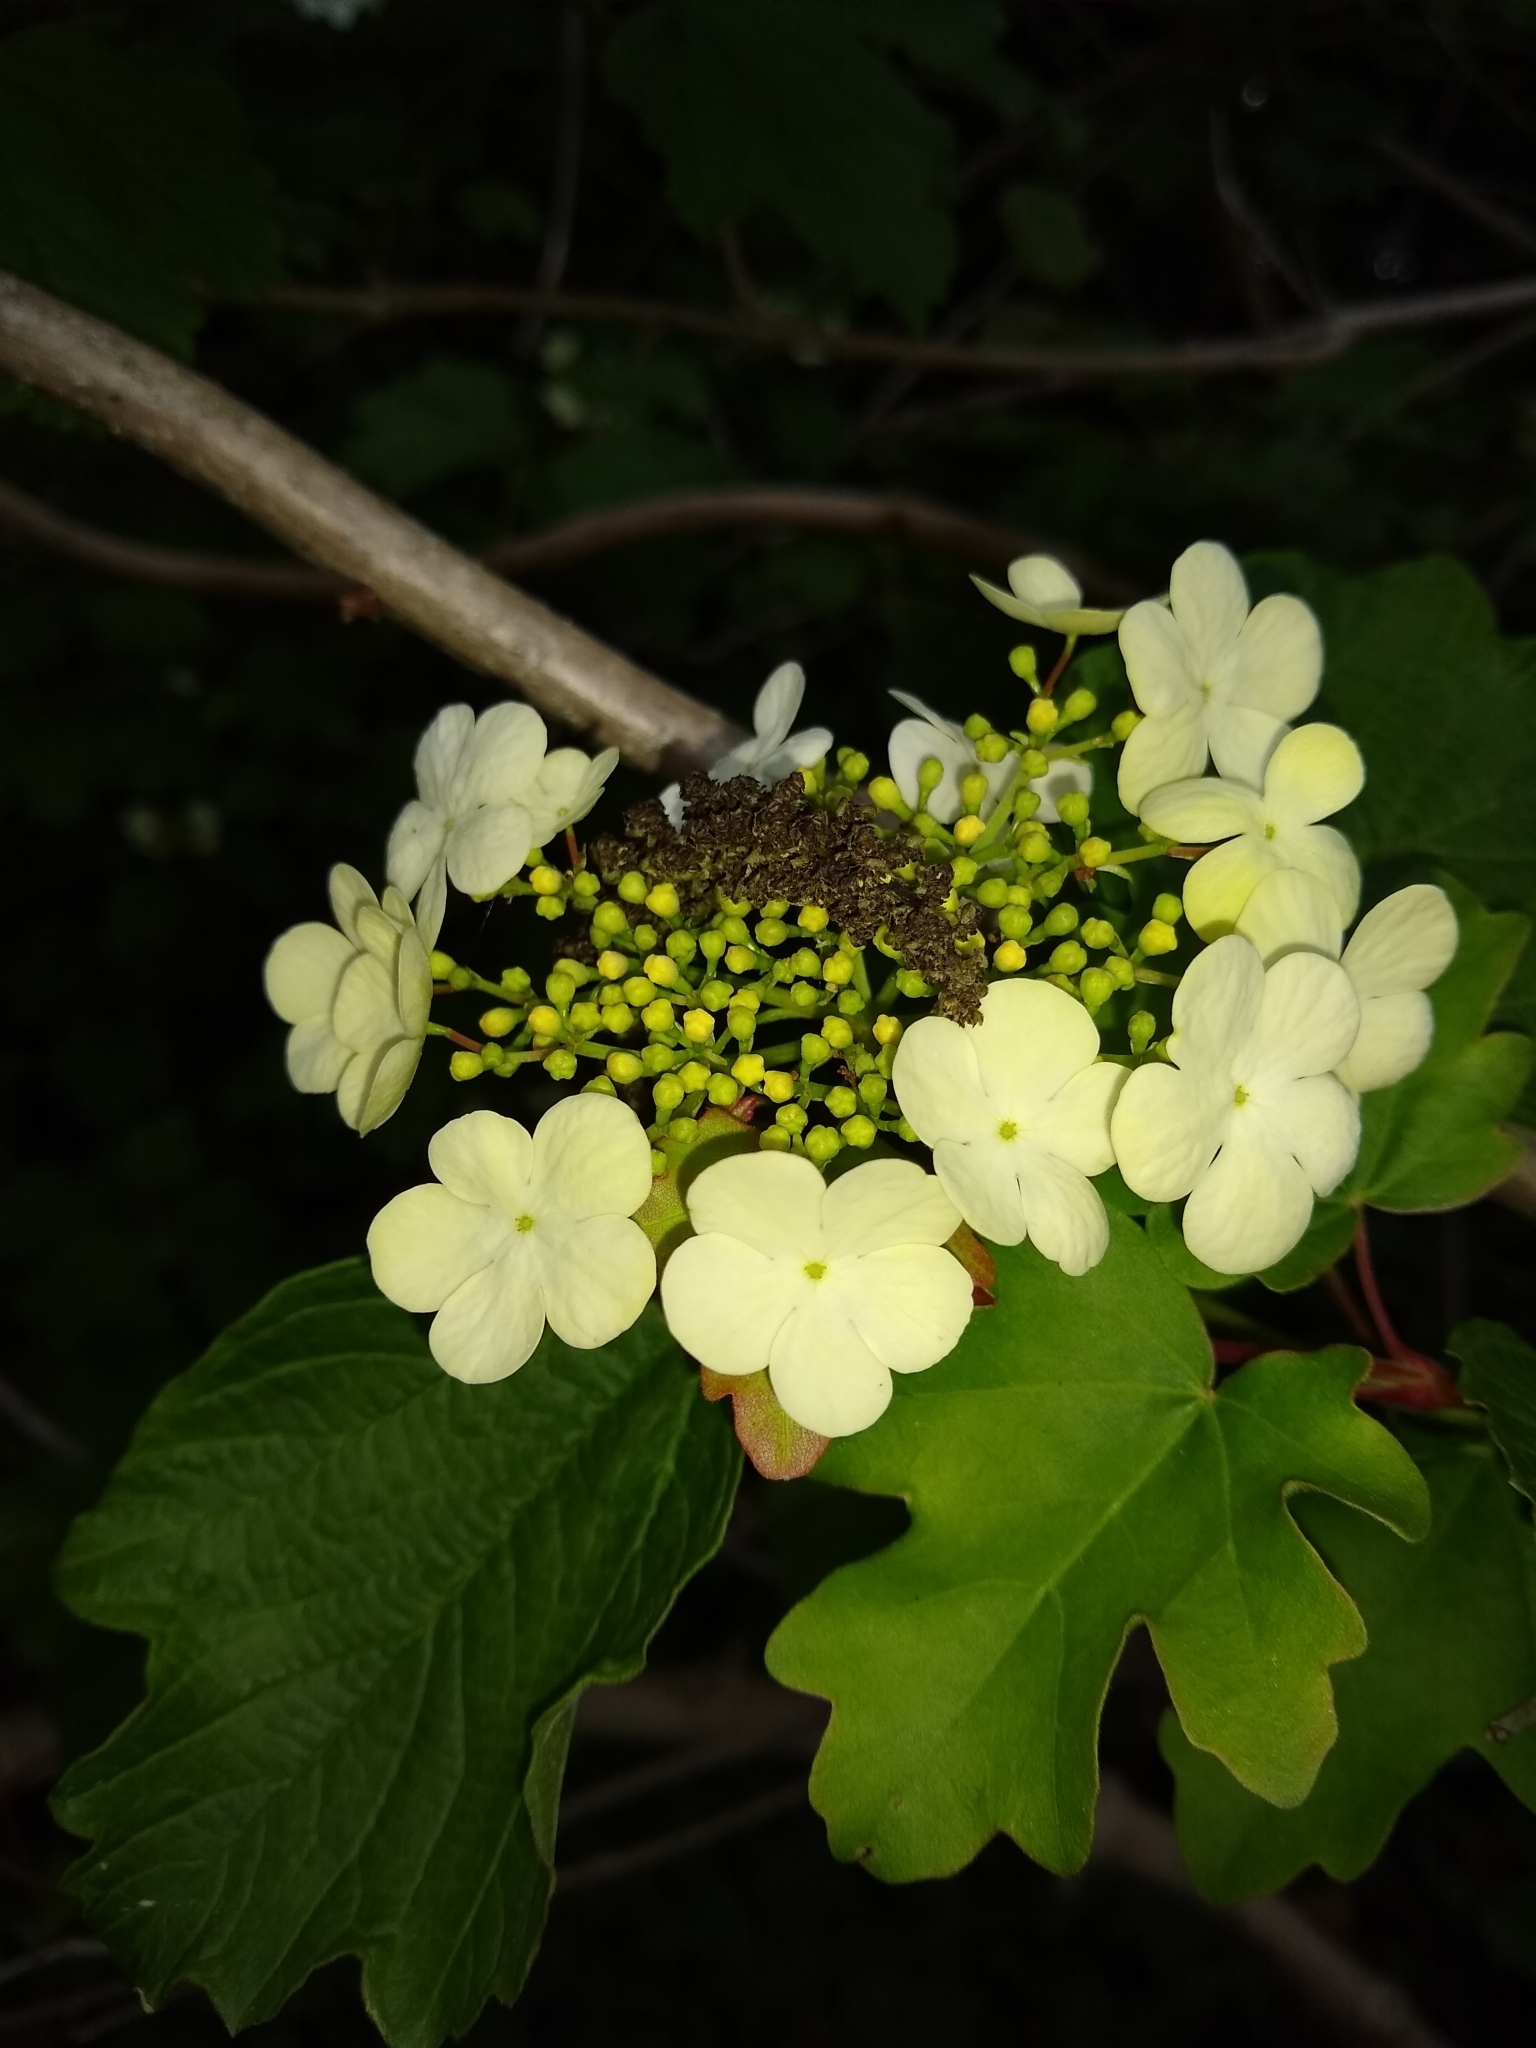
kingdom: Plantae
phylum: Tracheophyta
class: Magnoliopsida
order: Dipsacales
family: Viburnaceae
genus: Viburnum
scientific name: Viburnum opulus
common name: Guelder-rose
